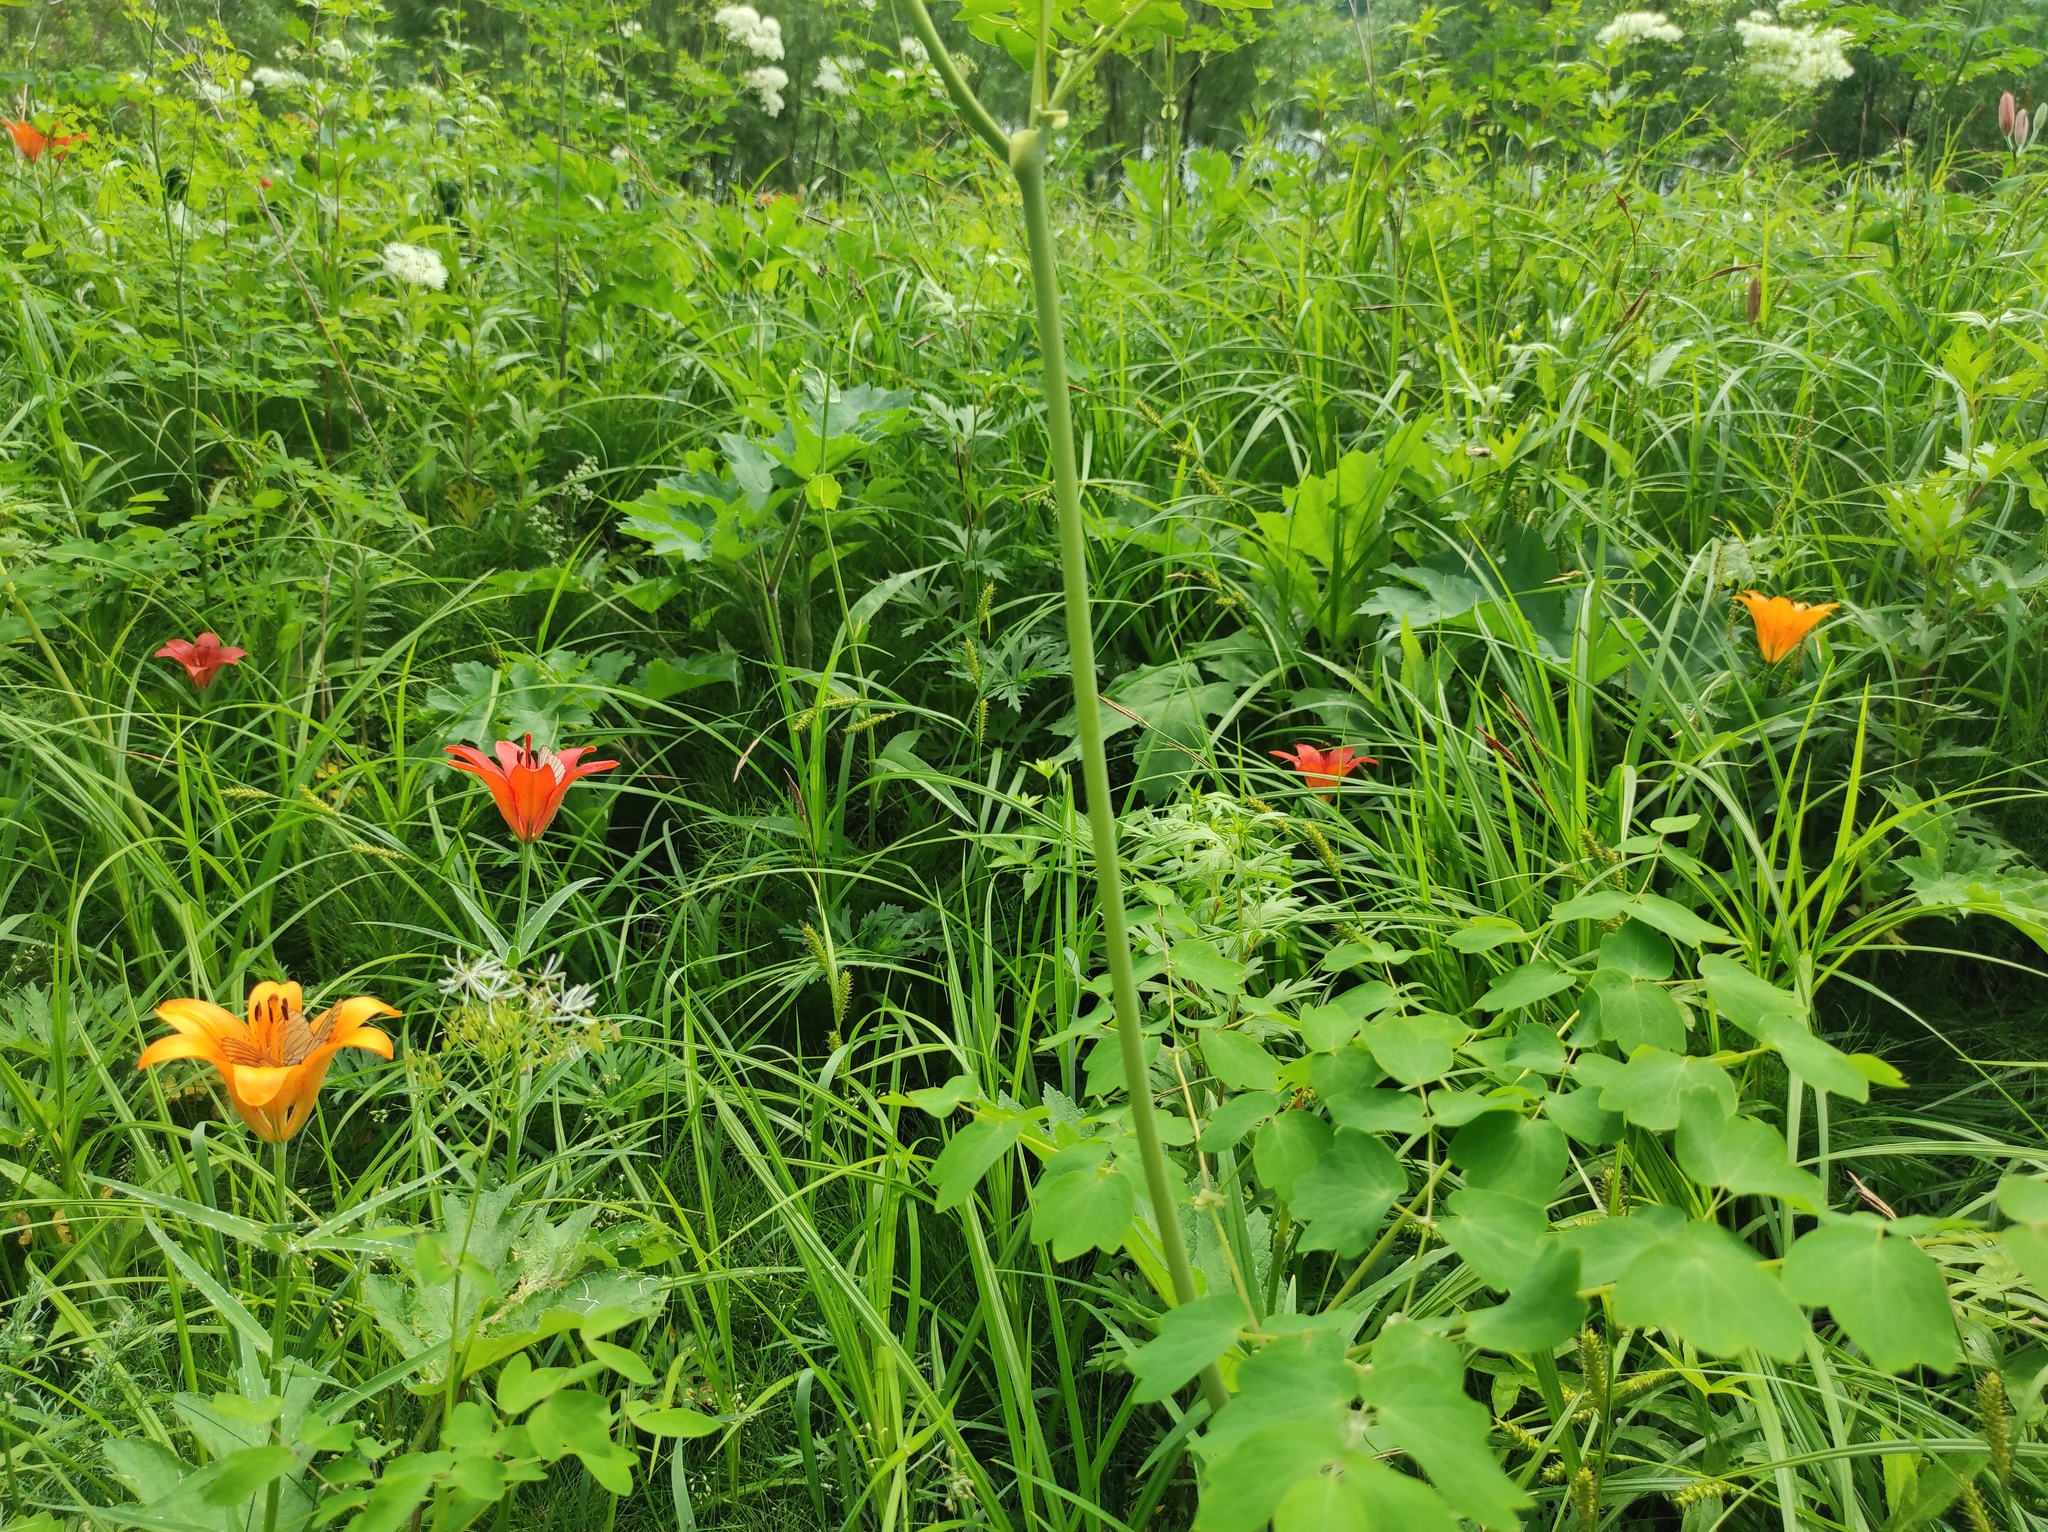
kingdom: Plantae
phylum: Tracheophyta
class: Magnoliopsida
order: Apiales
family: Apiaceae
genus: Heracleum
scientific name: Heracleum dissectum
